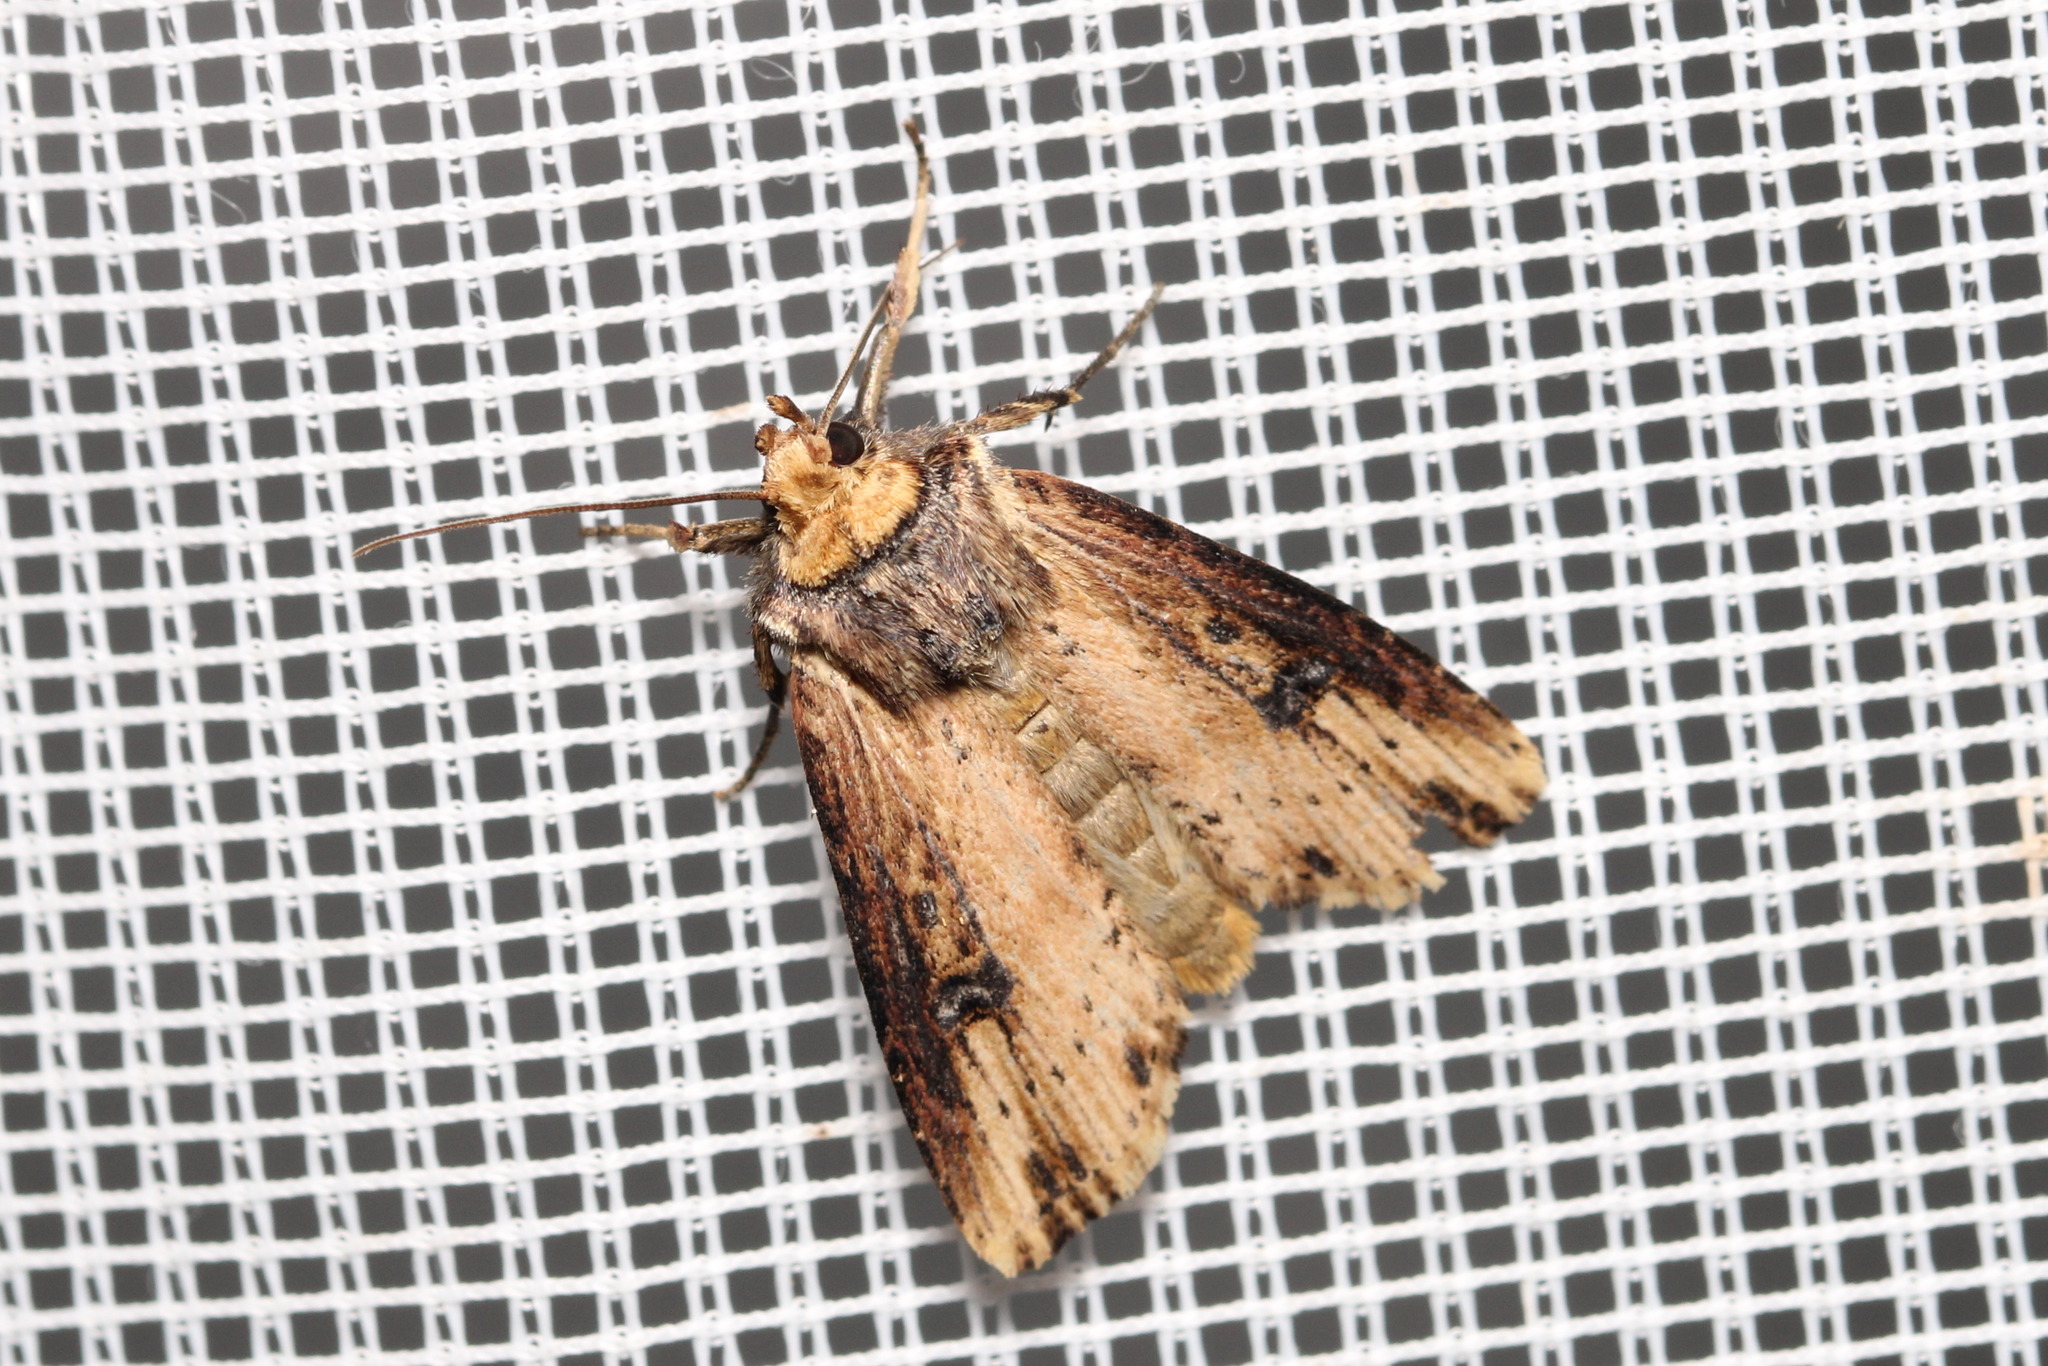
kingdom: Animalia
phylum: Arthropoda
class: Insecta
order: Lepidoptera
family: Noctuidae
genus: Axylia
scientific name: Axylia putris
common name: Flame
